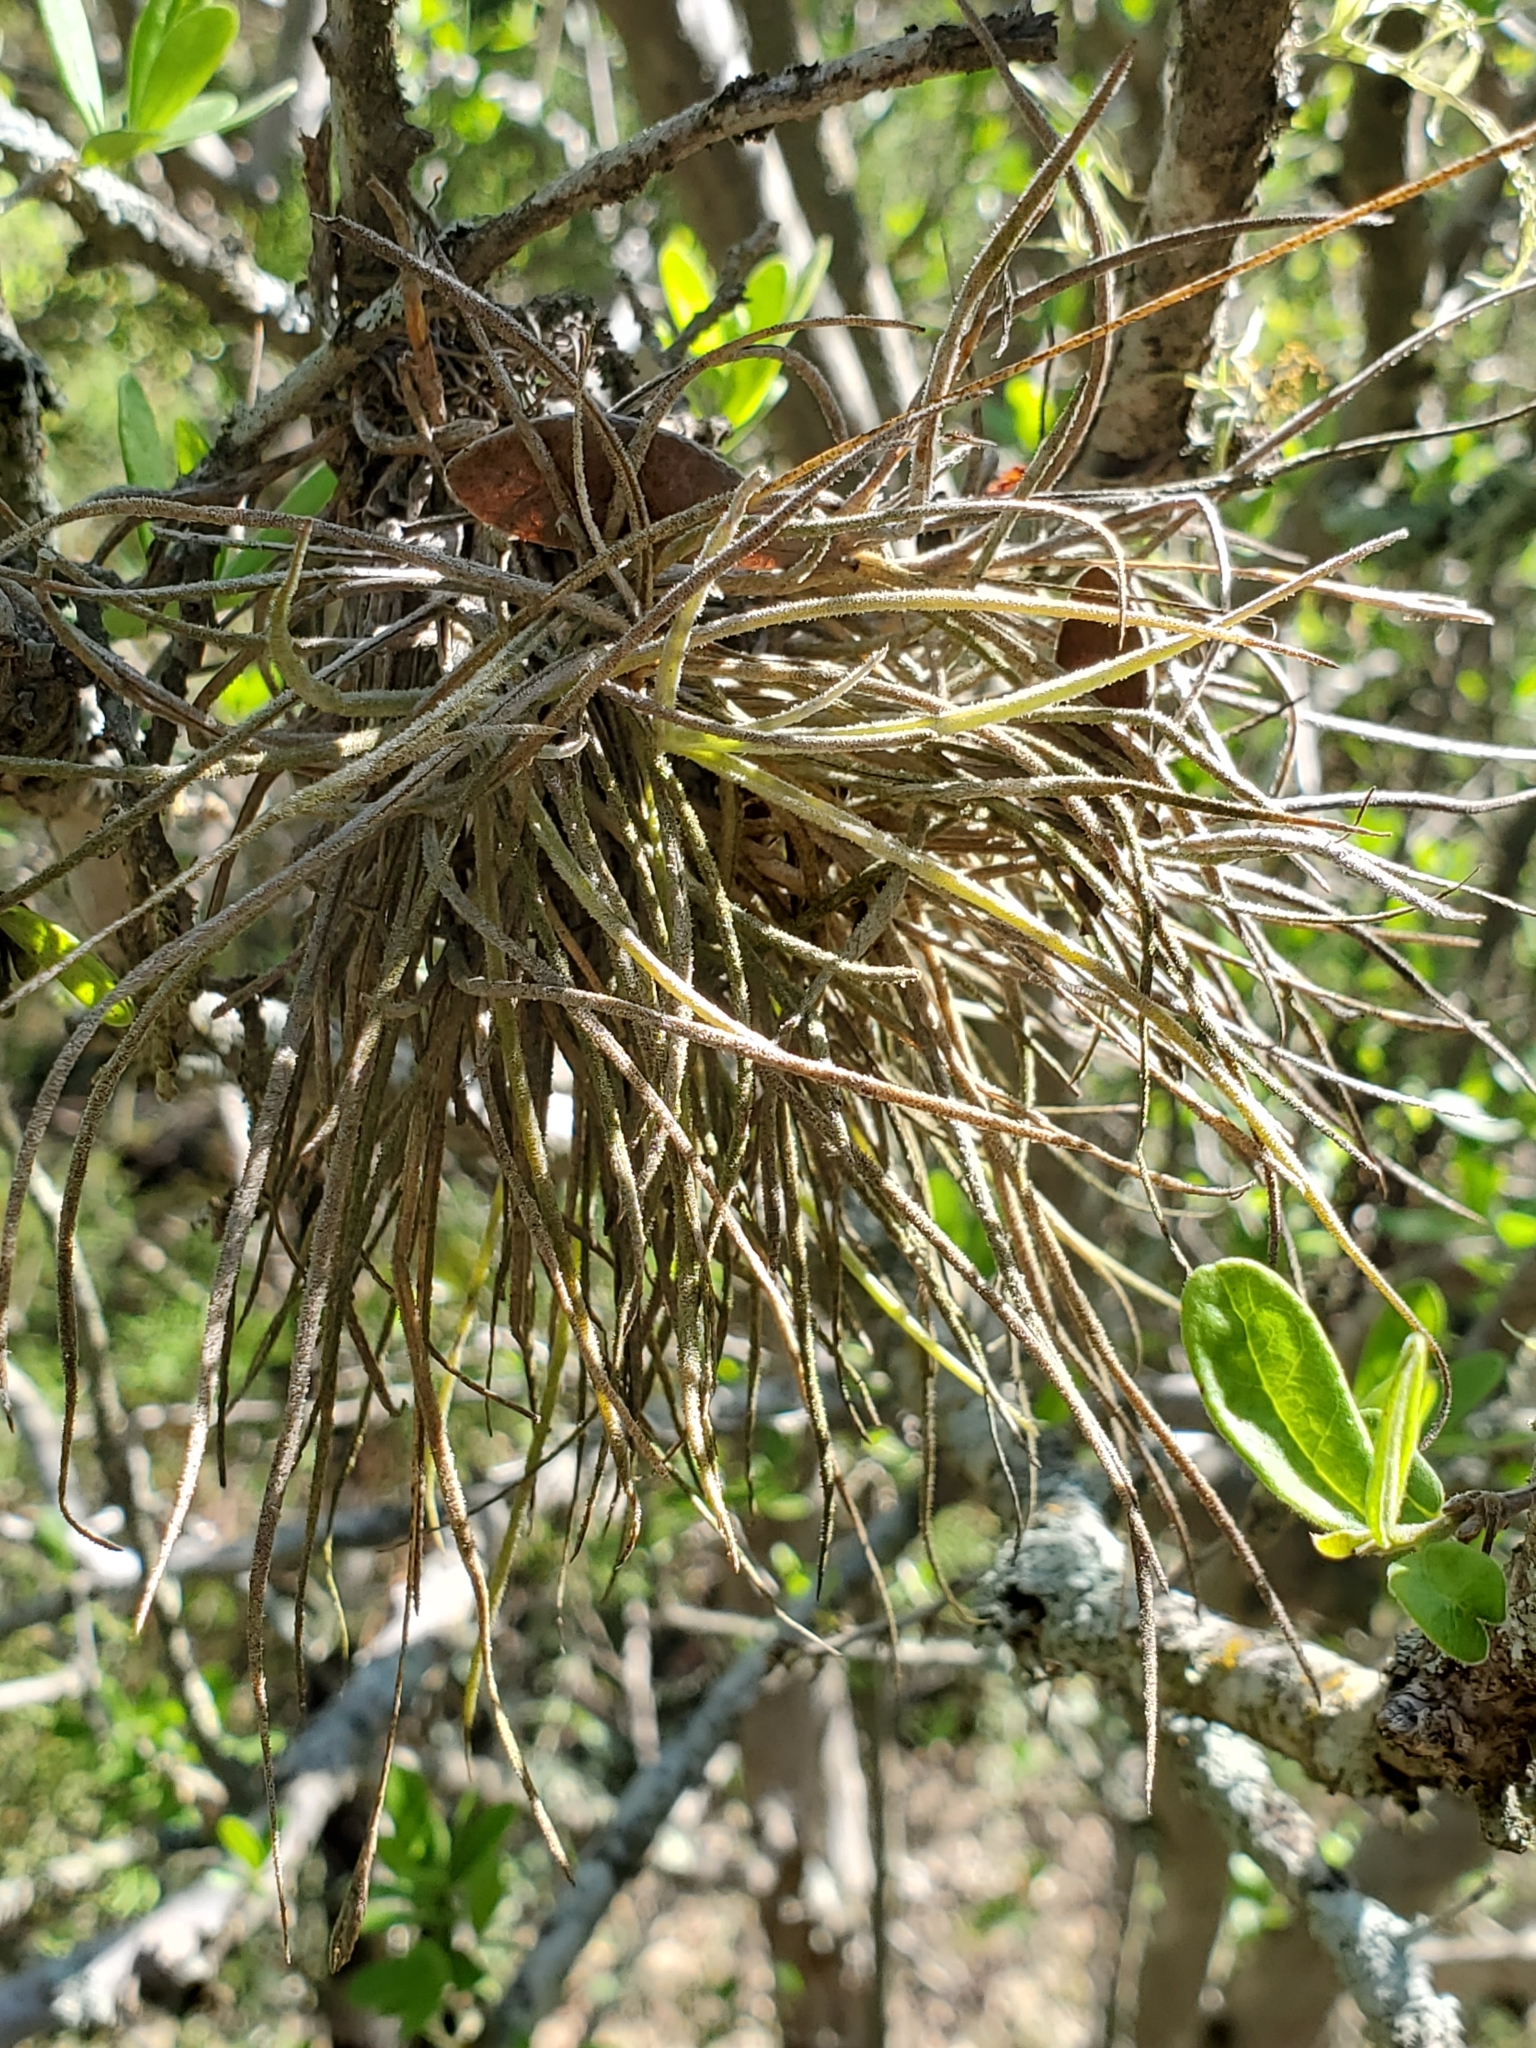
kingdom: Plantae
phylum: Tracheophyta
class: Liliopsida
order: Poales
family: Bromeliaceae
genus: Tillandsia
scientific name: Tillandsia recurvata
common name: Small ballmoss
